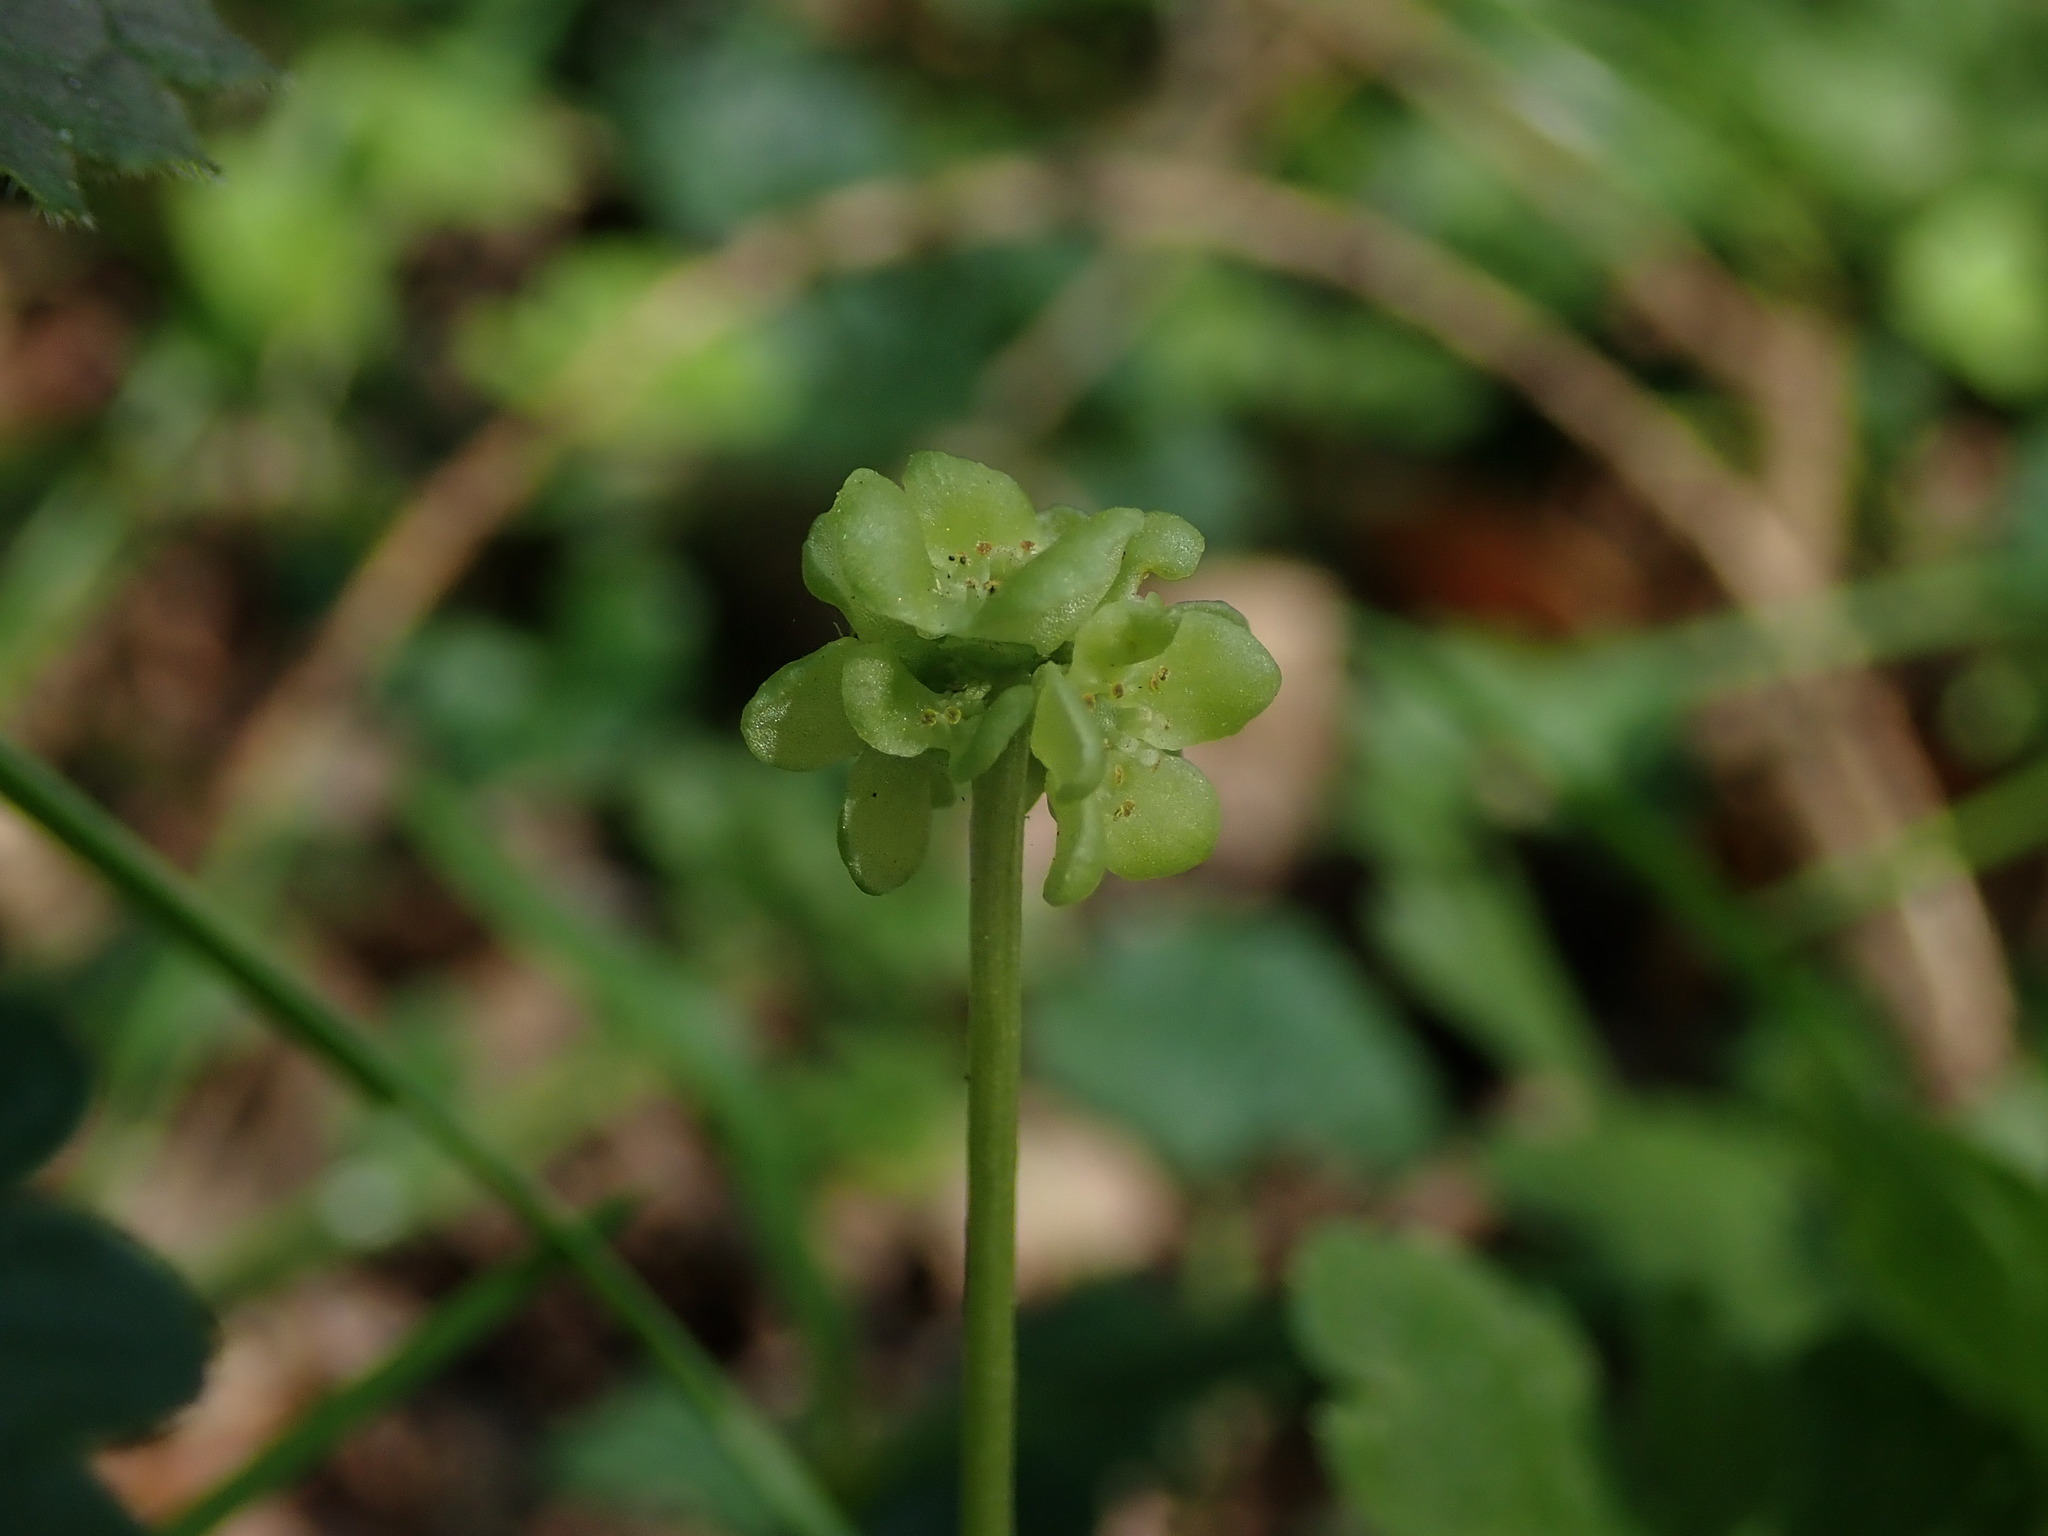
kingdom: Plantae
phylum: Tracheophyta
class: Magnoliopsida
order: Dipsacales
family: Viburnaceae
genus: Adoxa
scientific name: Adoxa moschatellina
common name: Moschatel
